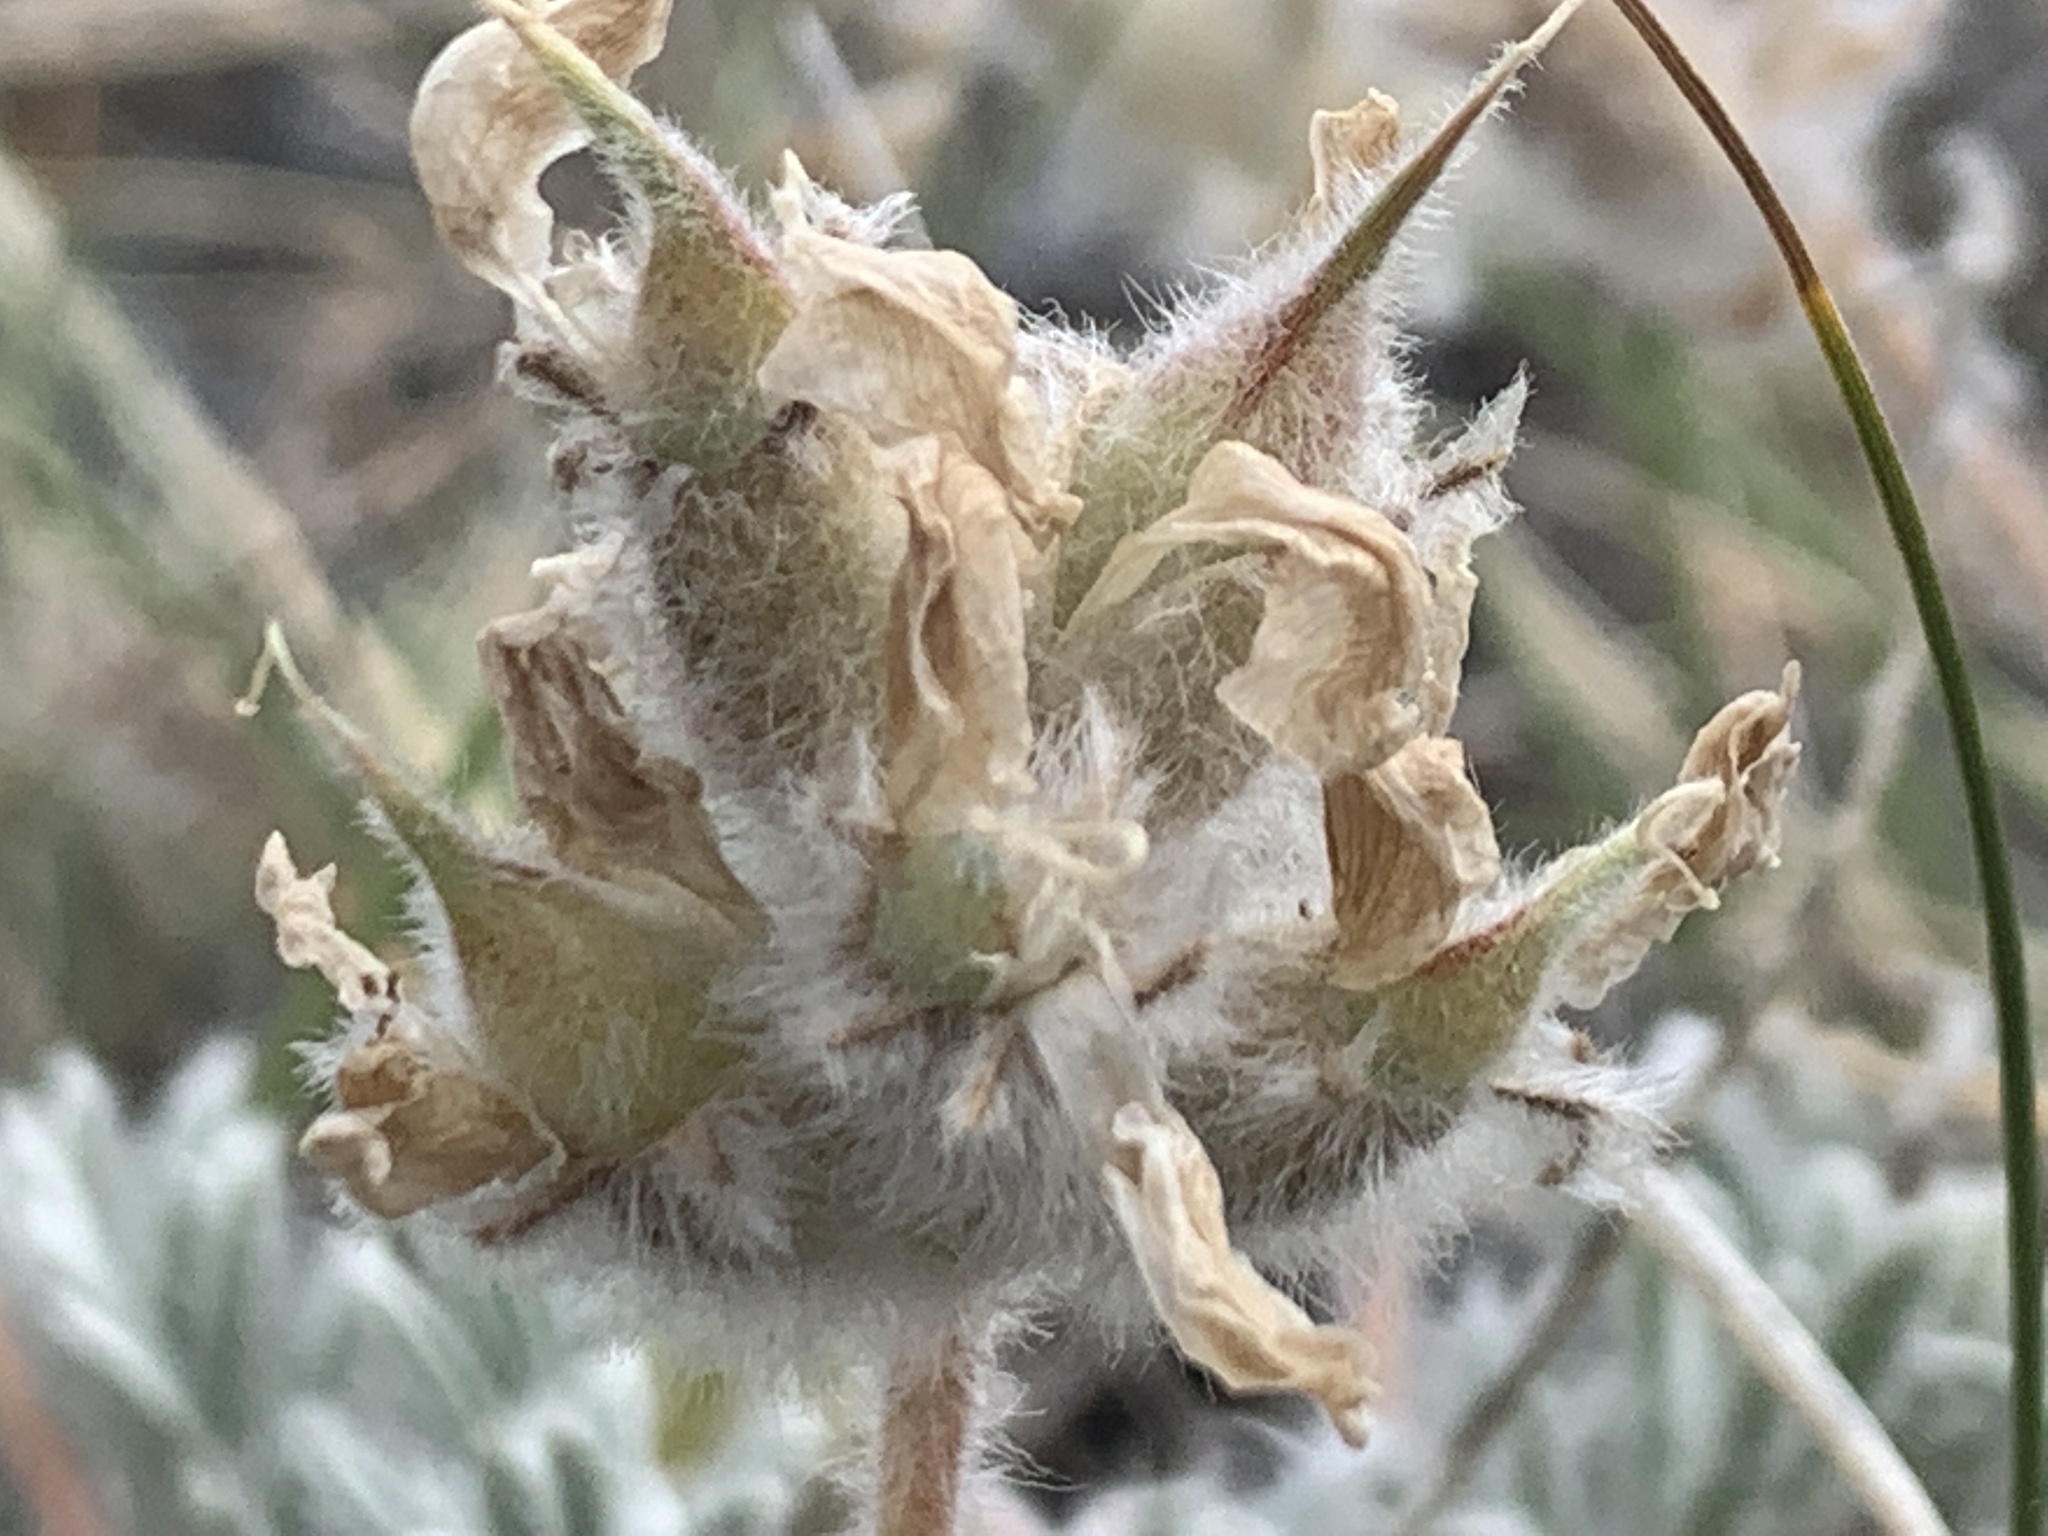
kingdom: Plantae
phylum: Tracheophyta
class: Magnoliopsida
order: Fabales
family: Fabaceae
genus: Oxytropis
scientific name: Oxytropis lagopus
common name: Hare's-foot locoweed
